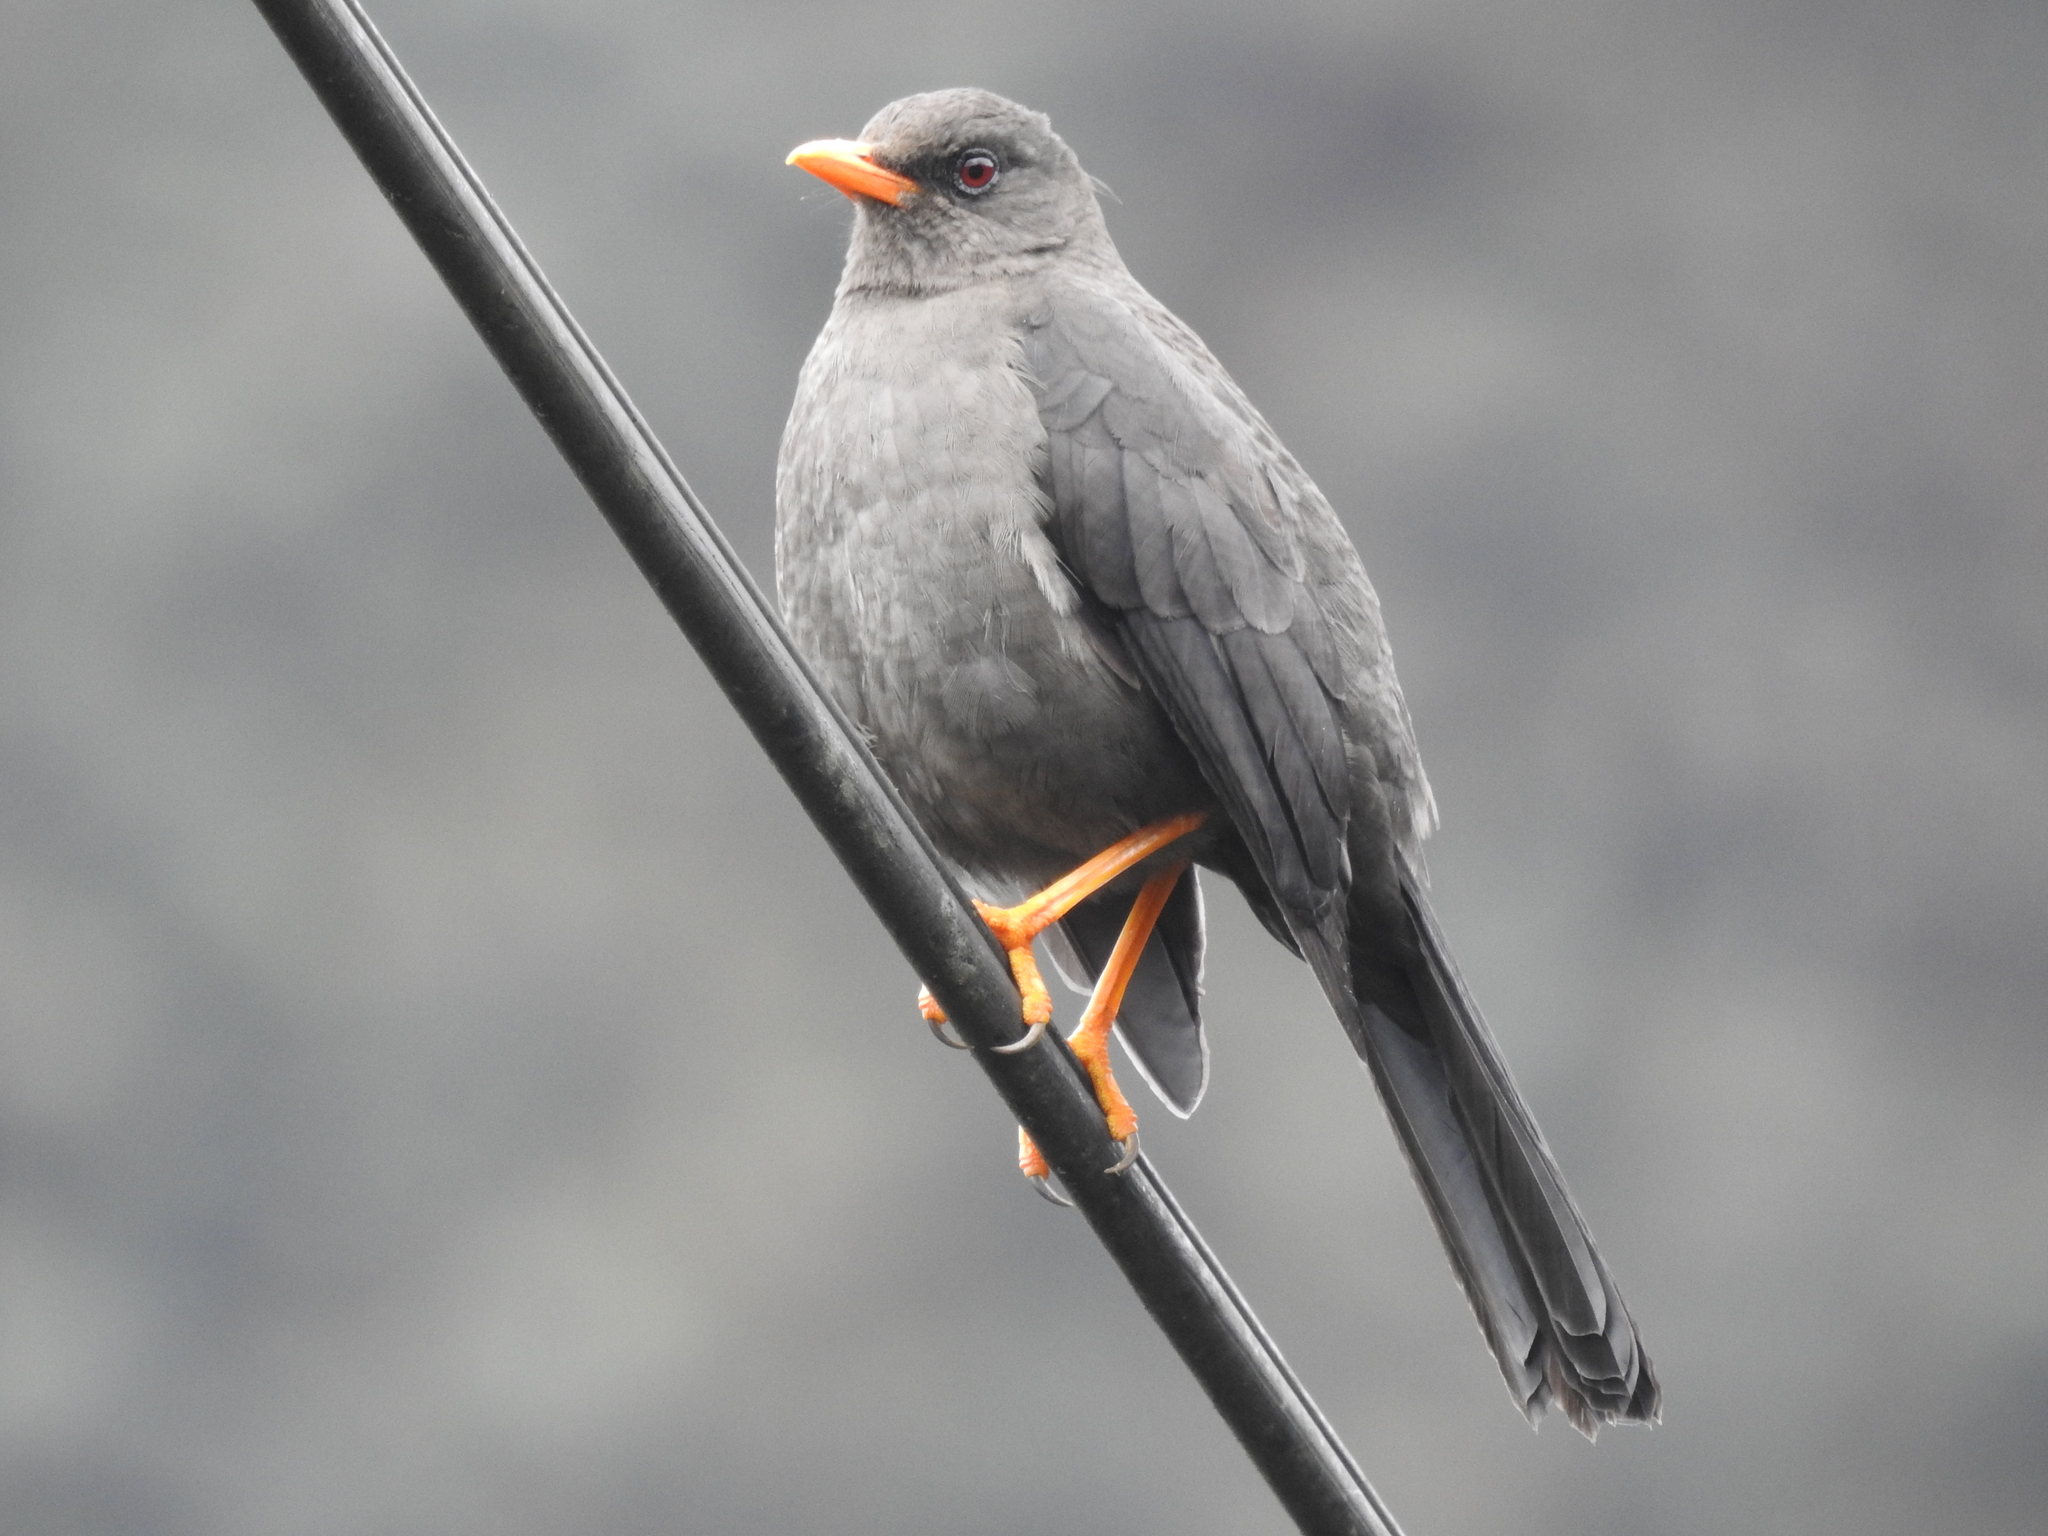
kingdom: Animalia
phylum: Chordata
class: Aves
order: Passeriformes
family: Turdidae
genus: Turdus
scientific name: Turdus fuscater
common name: Great thrush
